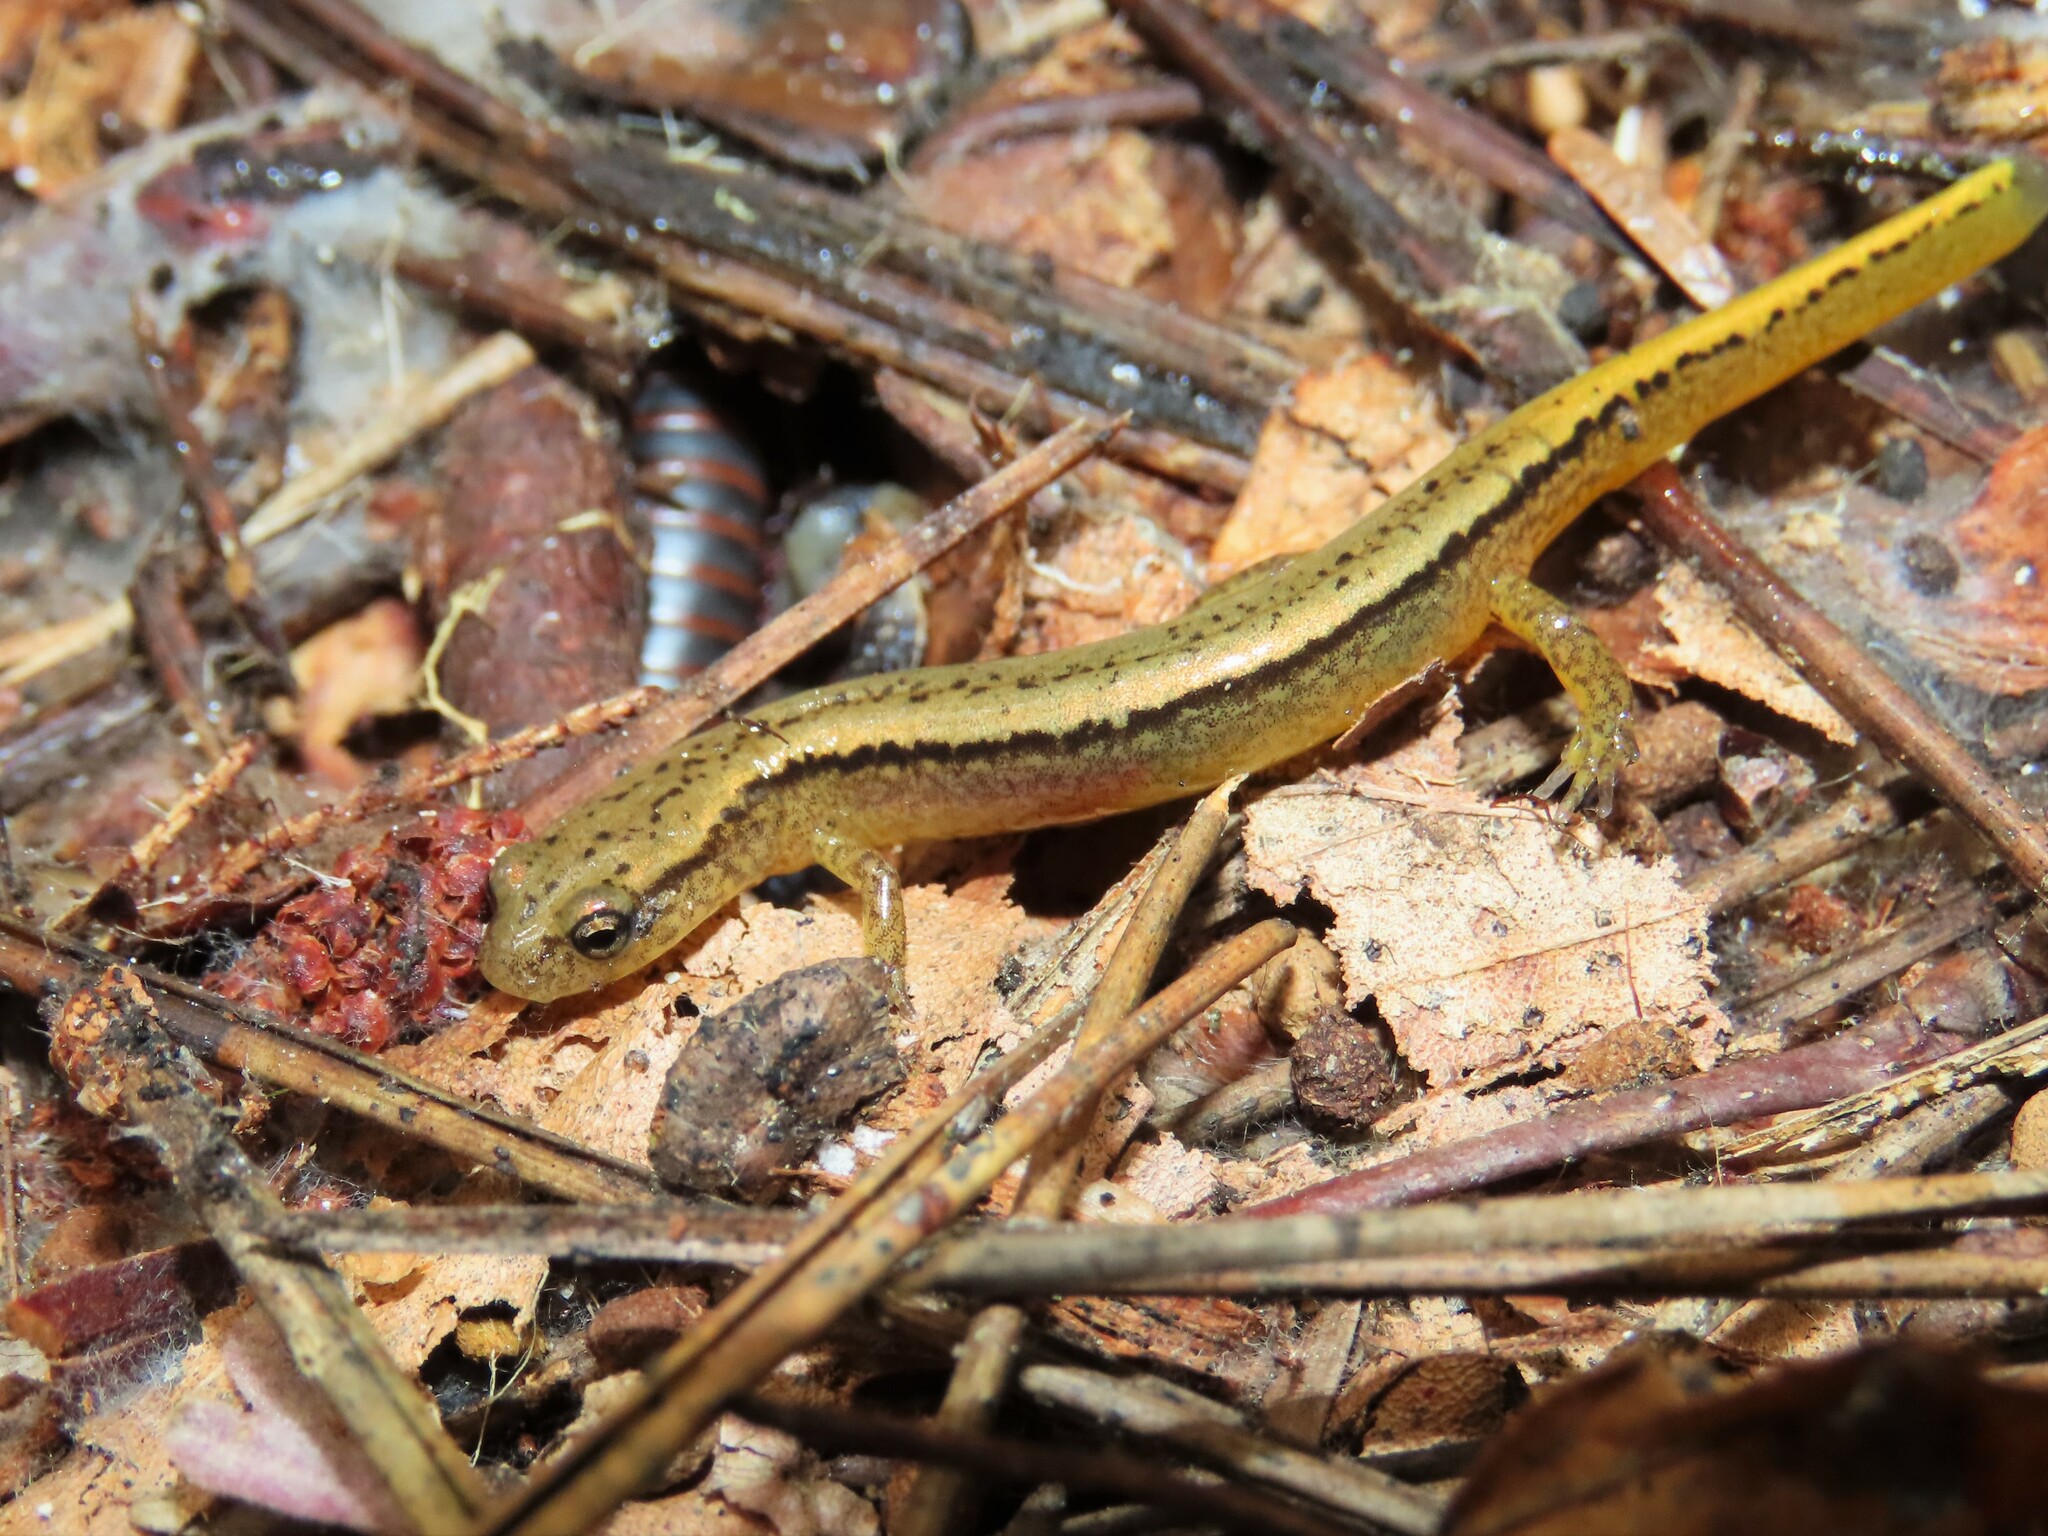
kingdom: Animalia
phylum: Chordata
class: Amphibia
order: Caudata
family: Plethodontidae
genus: Eurycea
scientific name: Eurycea bislineata
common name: Northern two-lined salamander
